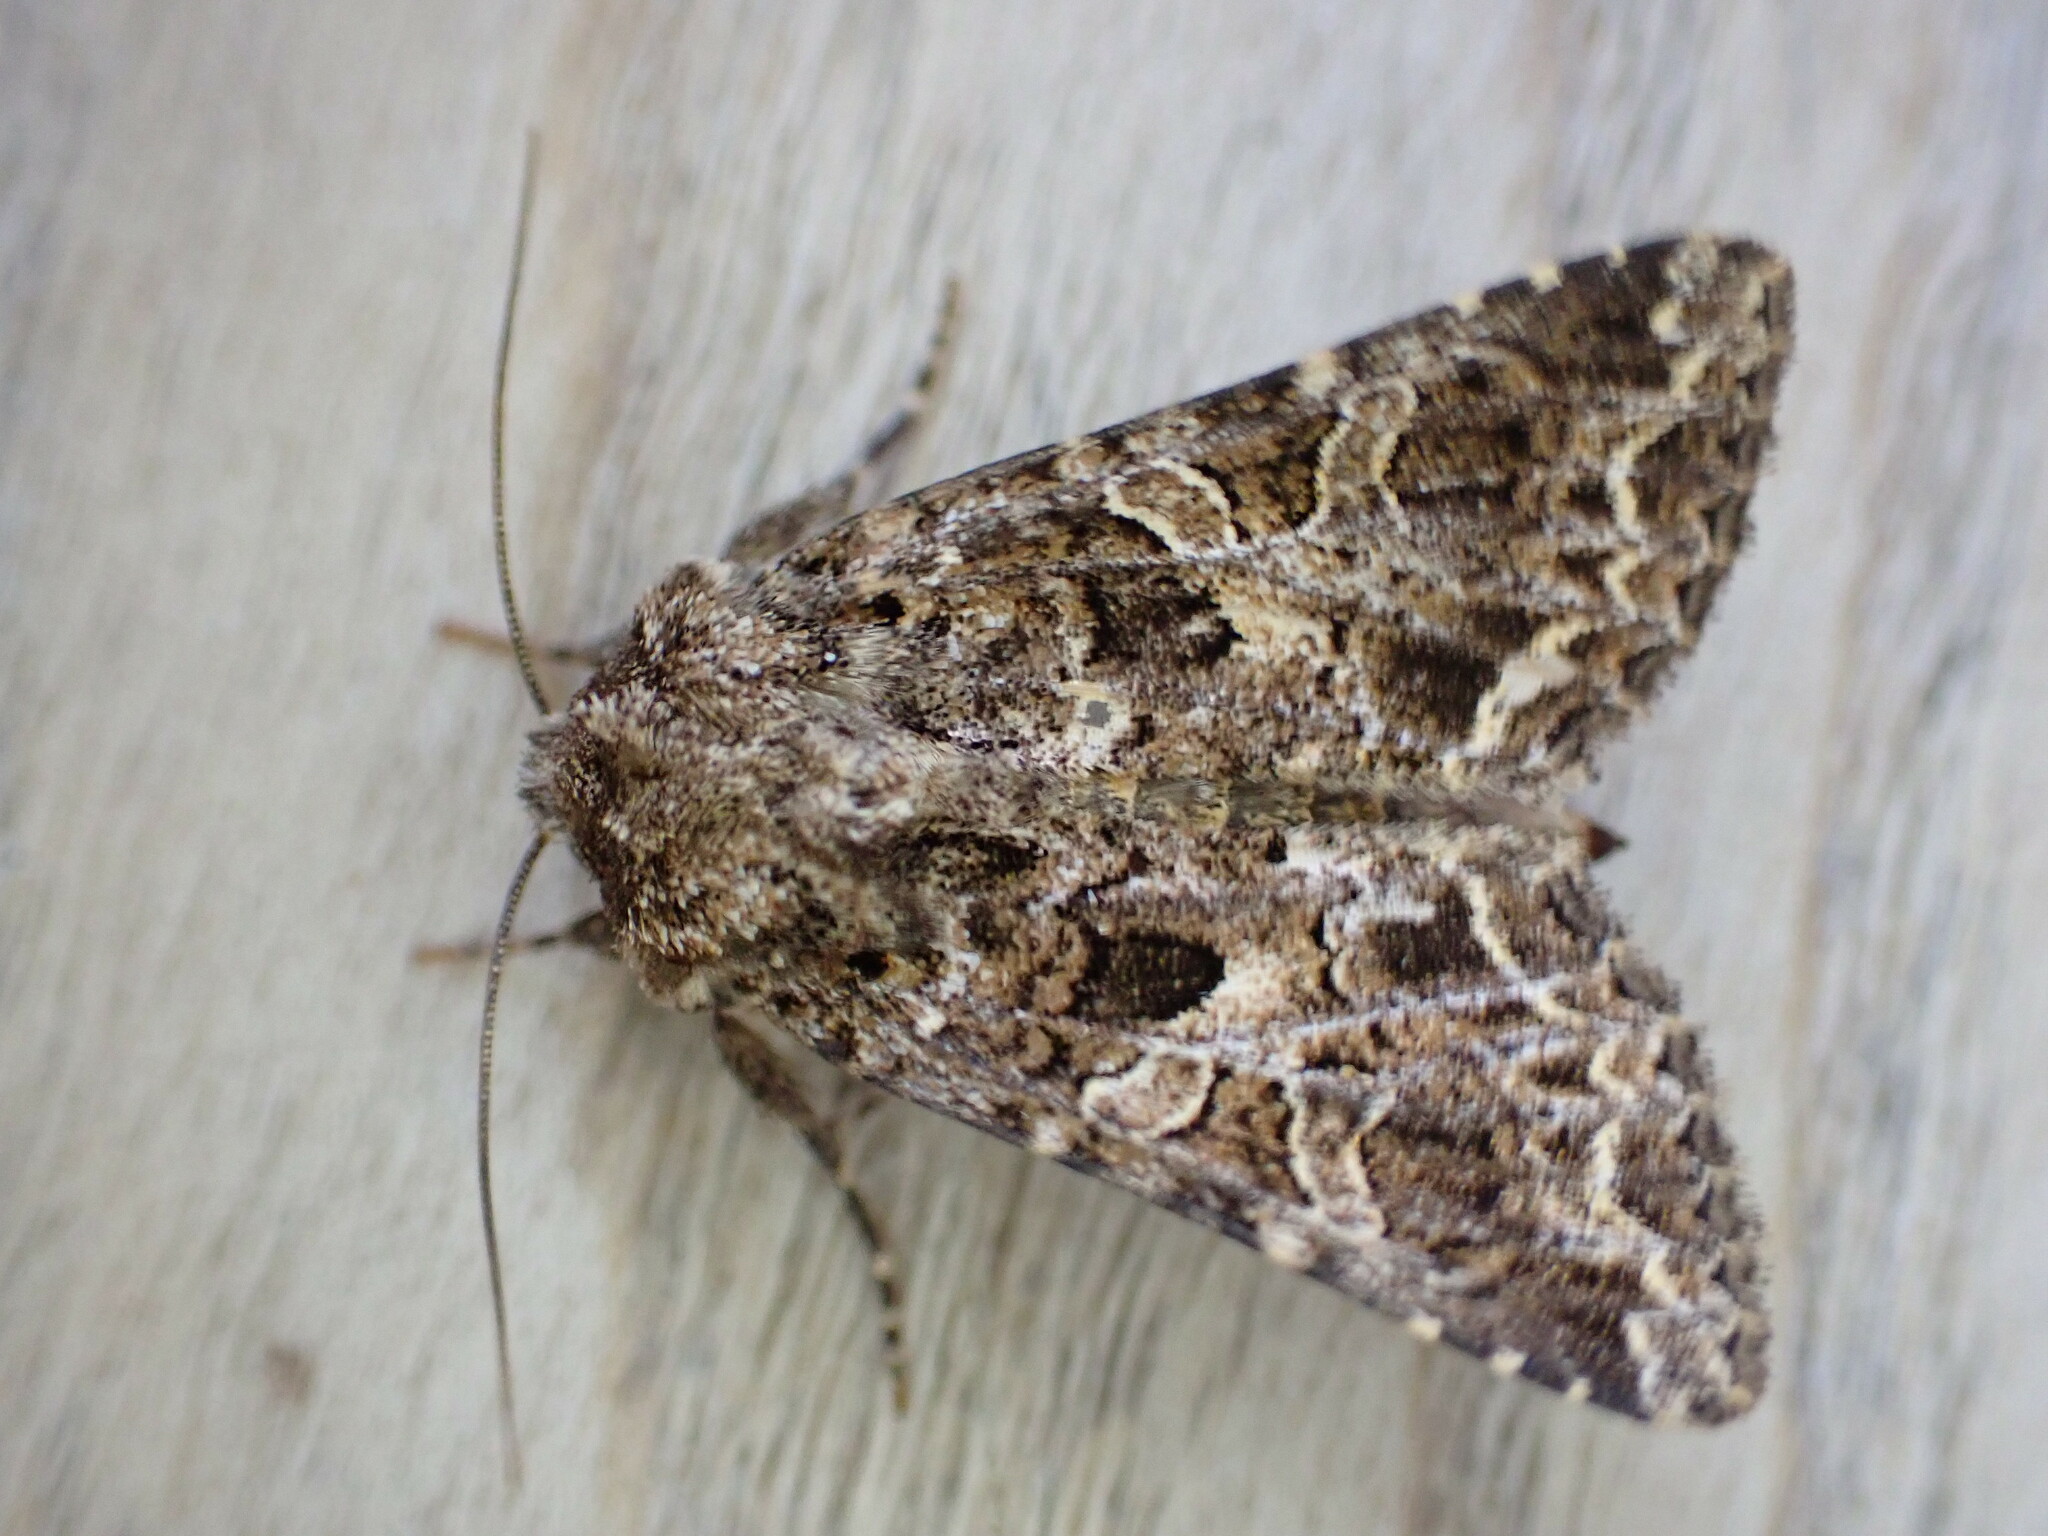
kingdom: Animalia
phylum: Arthropoda
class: Insecta
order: Lepidoptera
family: Noctuidae
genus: Hadena
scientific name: Hadena bicruris
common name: Lychnis
